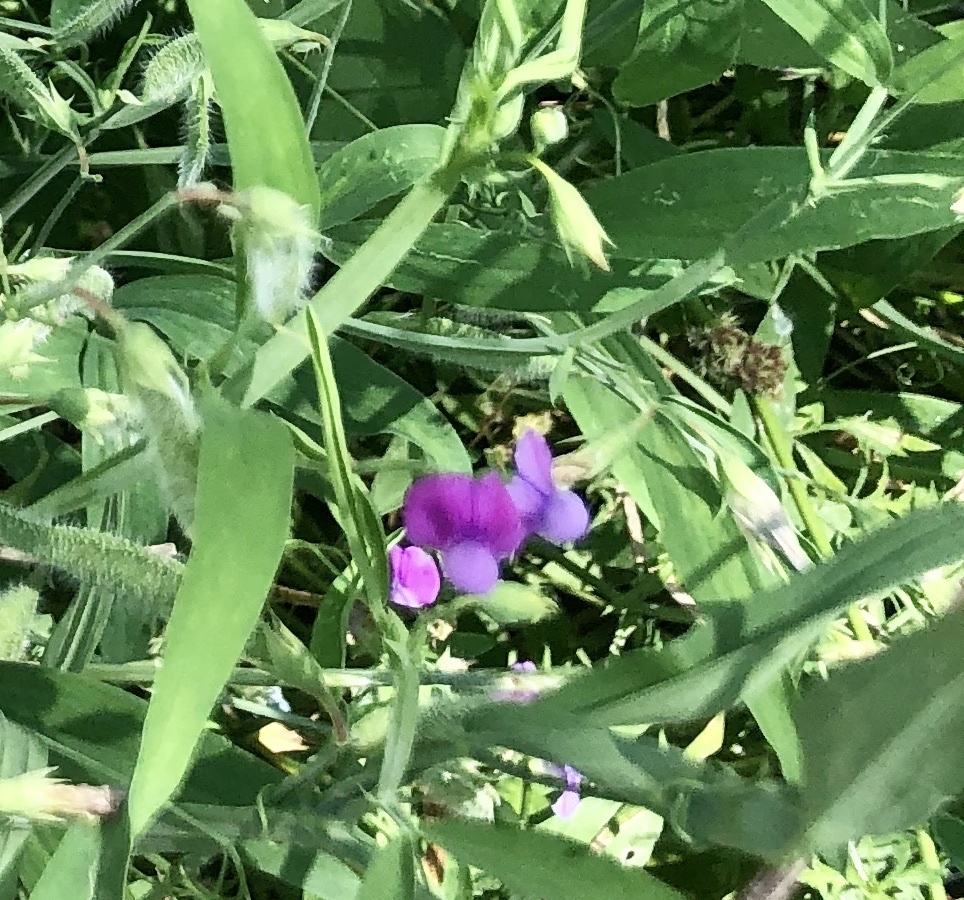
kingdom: Plantae
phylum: Tracheophyta
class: Magnoliopsida
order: Fabales
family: Fabaceae
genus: Lathyrus
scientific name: Lathyrus hirsutus
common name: Hairy vetchling
